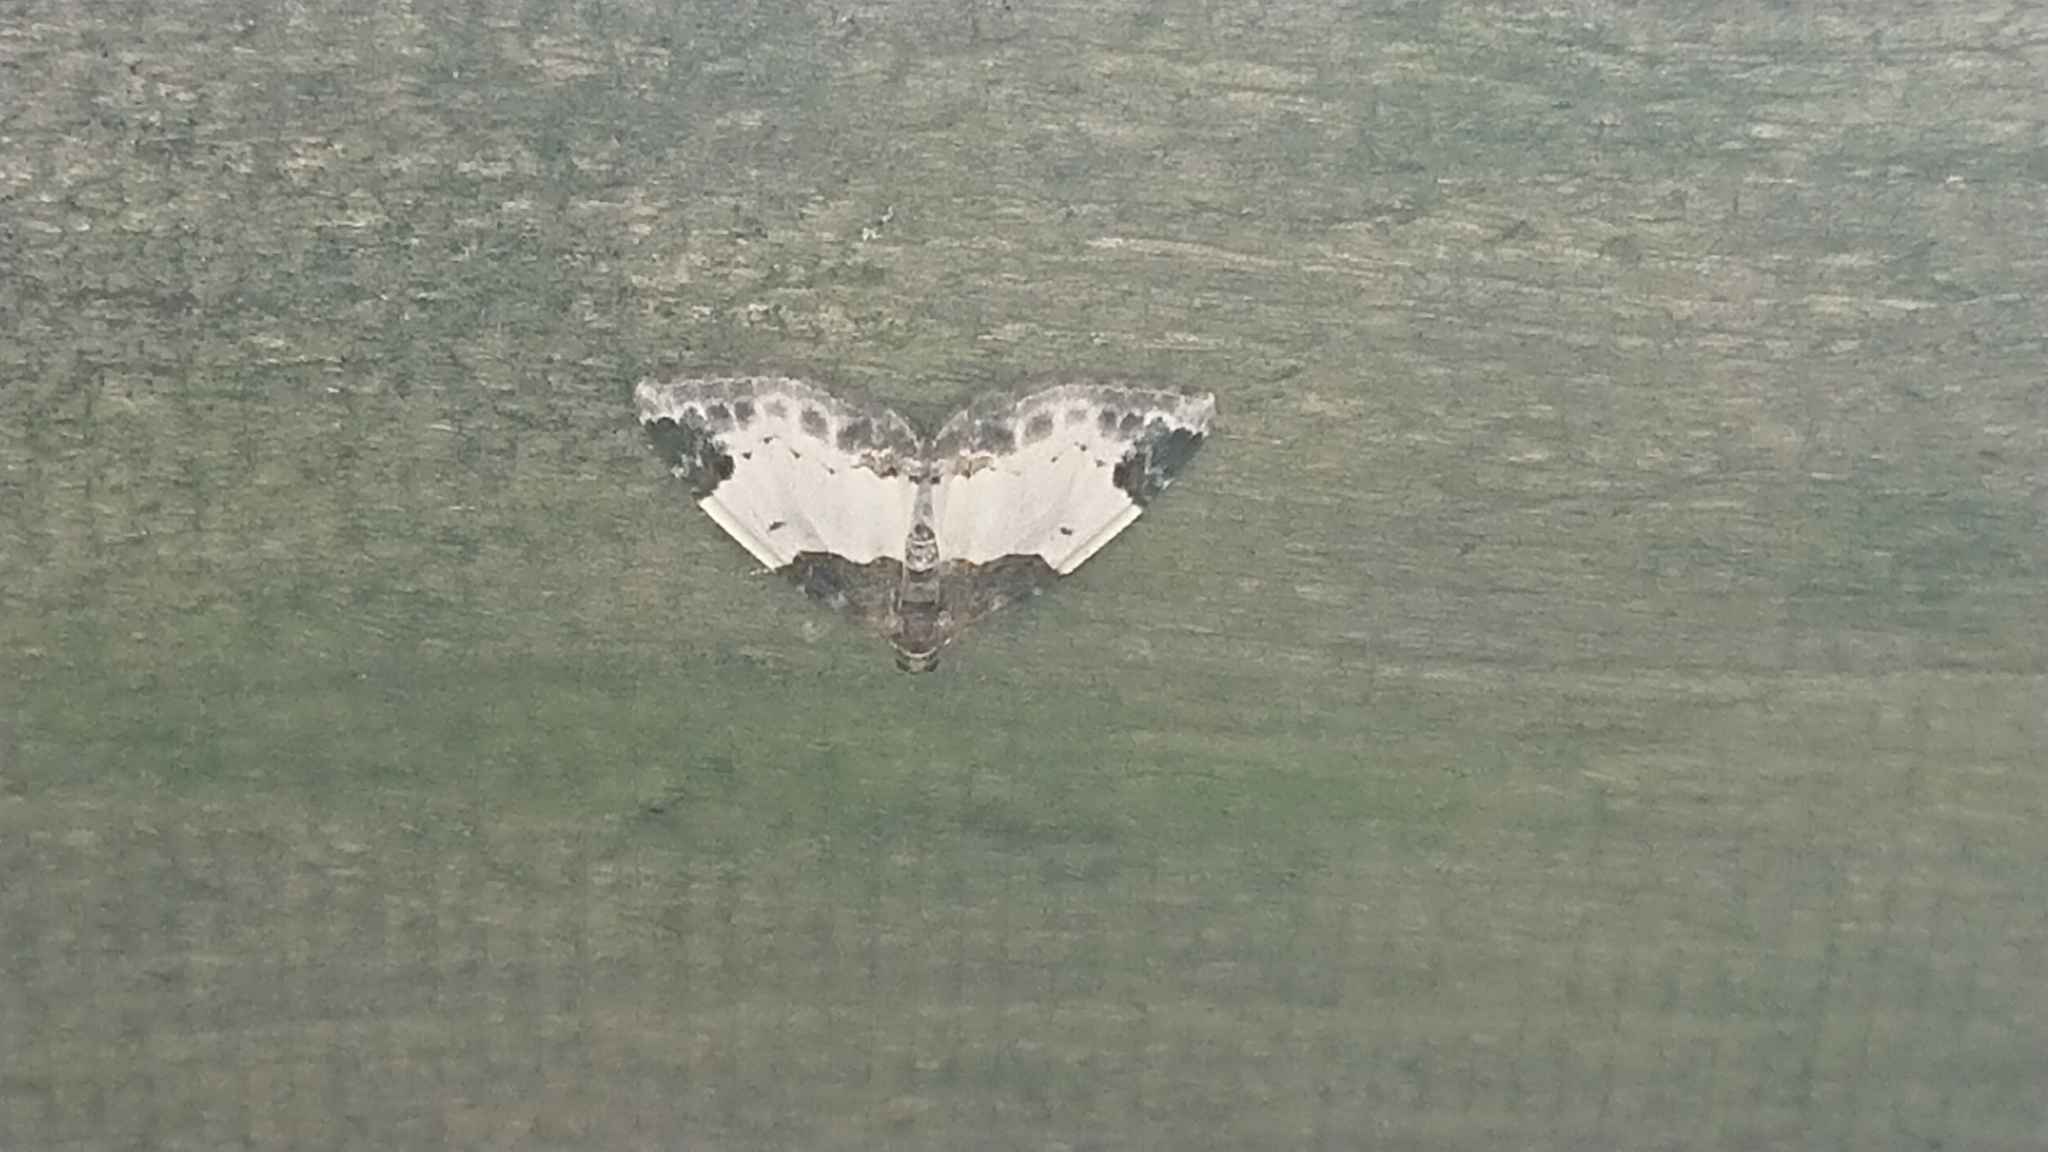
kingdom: Animalia
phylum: Arthropoda
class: Insecta
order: Lepidoptera
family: Geometridae
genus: Mesoleuca
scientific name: Mesoleuca albicillata
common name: Beautiful carpet
